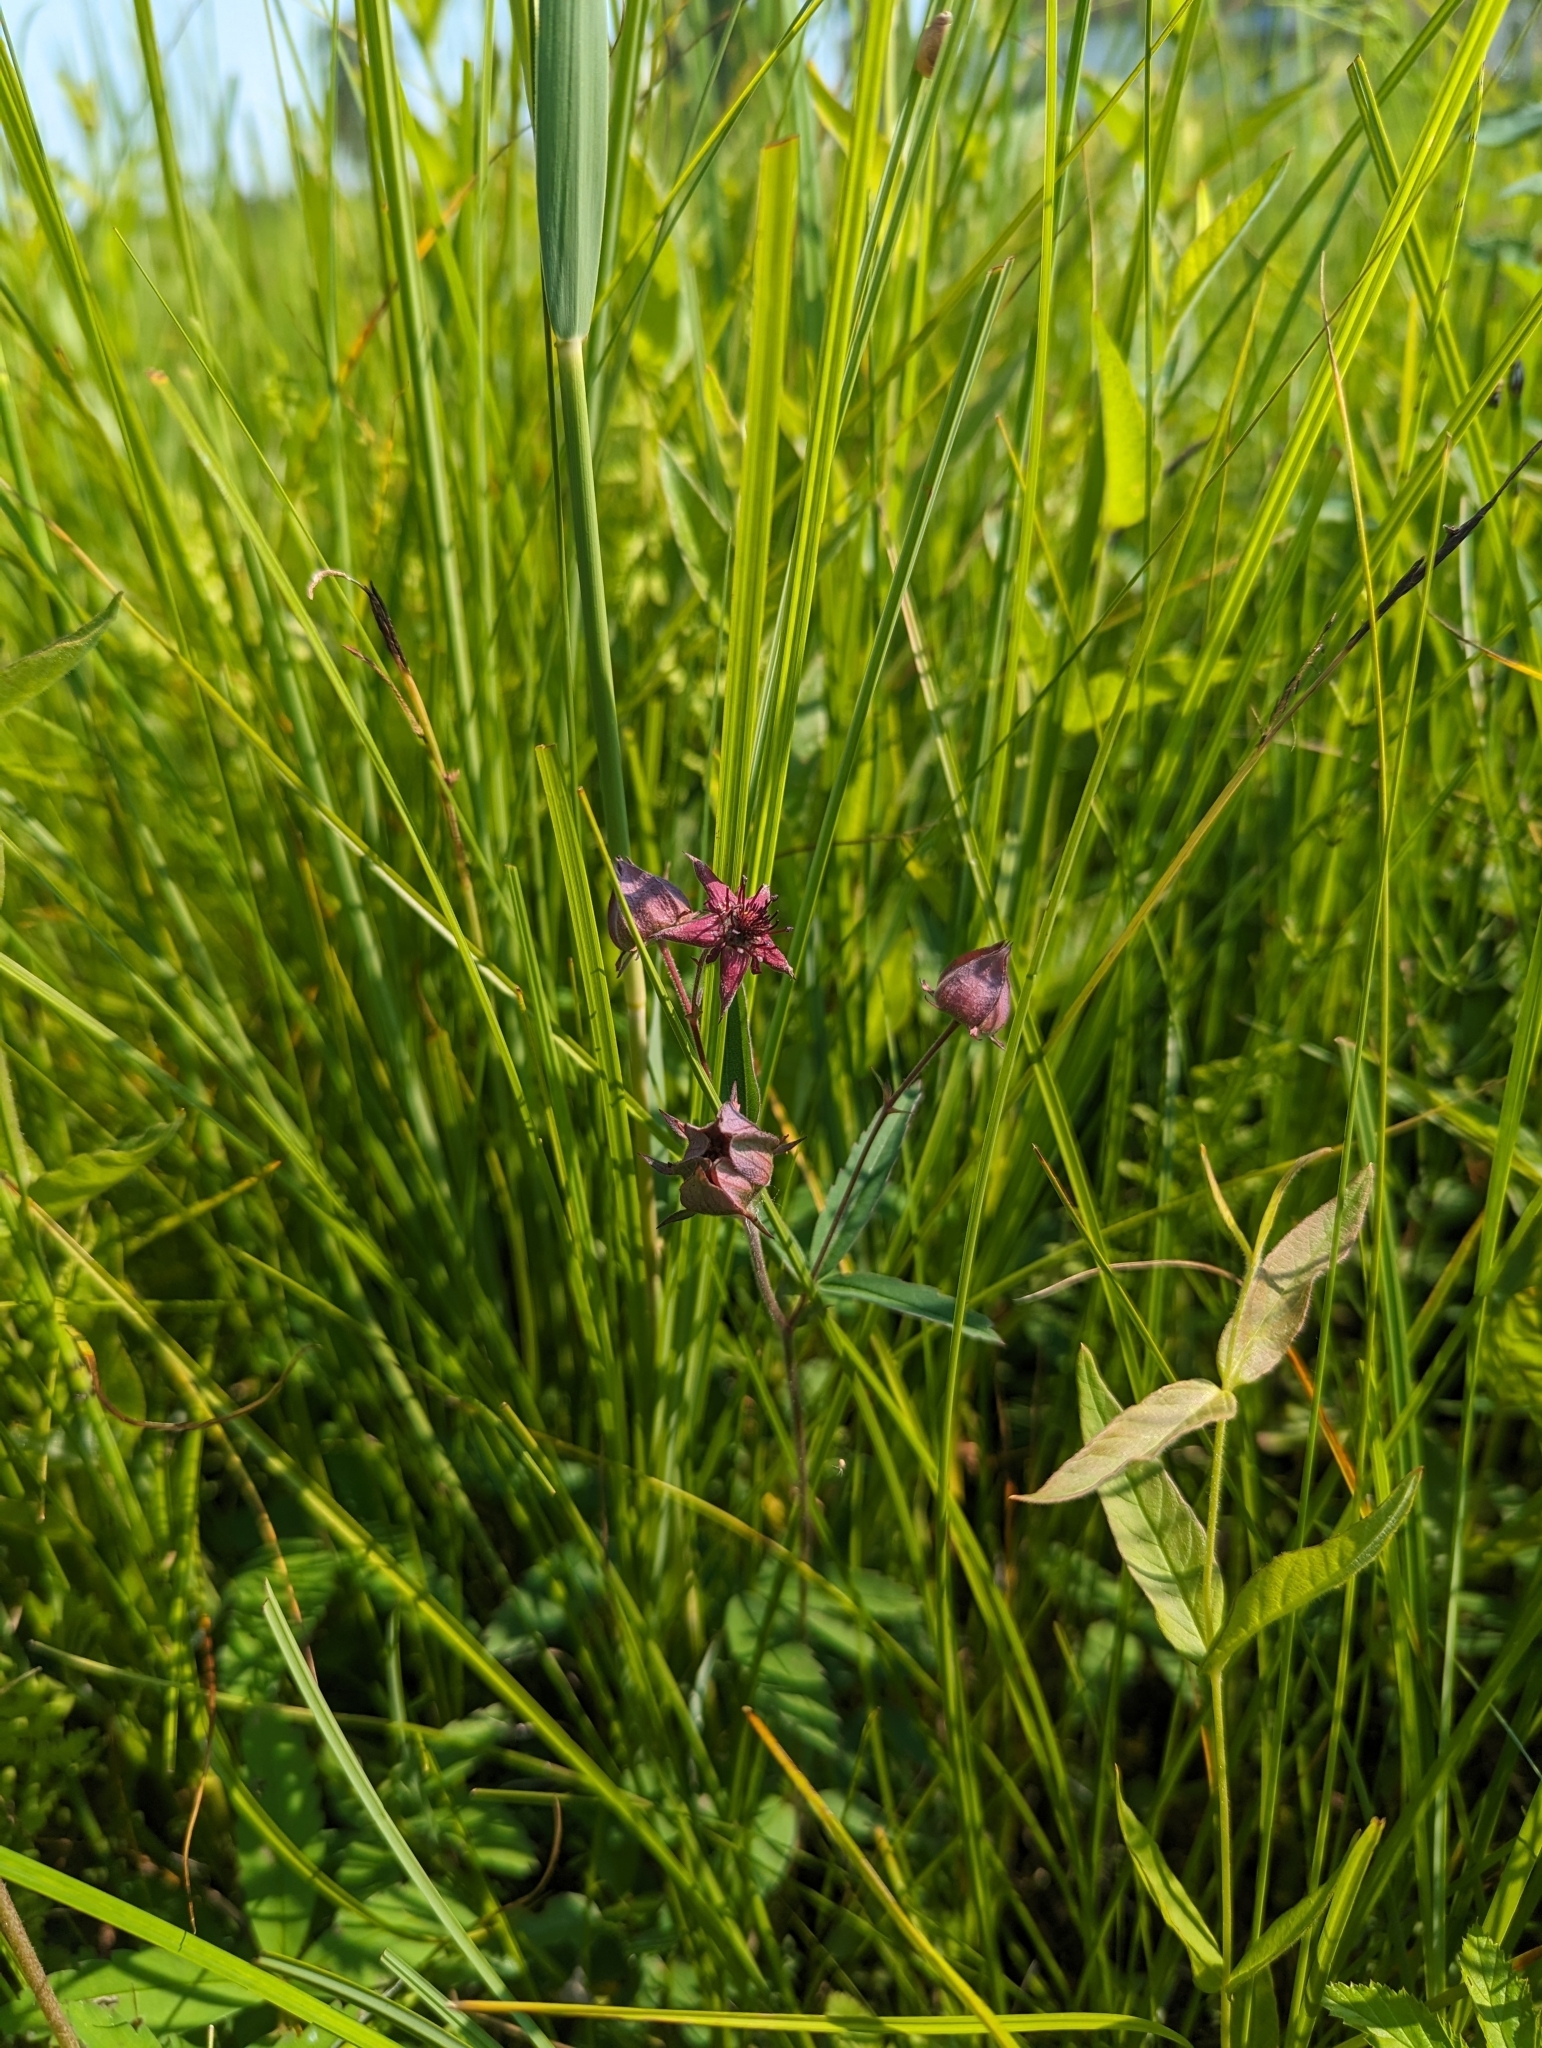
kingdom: Plantae
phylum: Tracheophyta
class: Magnoliopsida
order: Rosales
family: Rosaceae
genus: Comarum
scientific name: Comarum palustre
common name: Marsh cinquefoil
